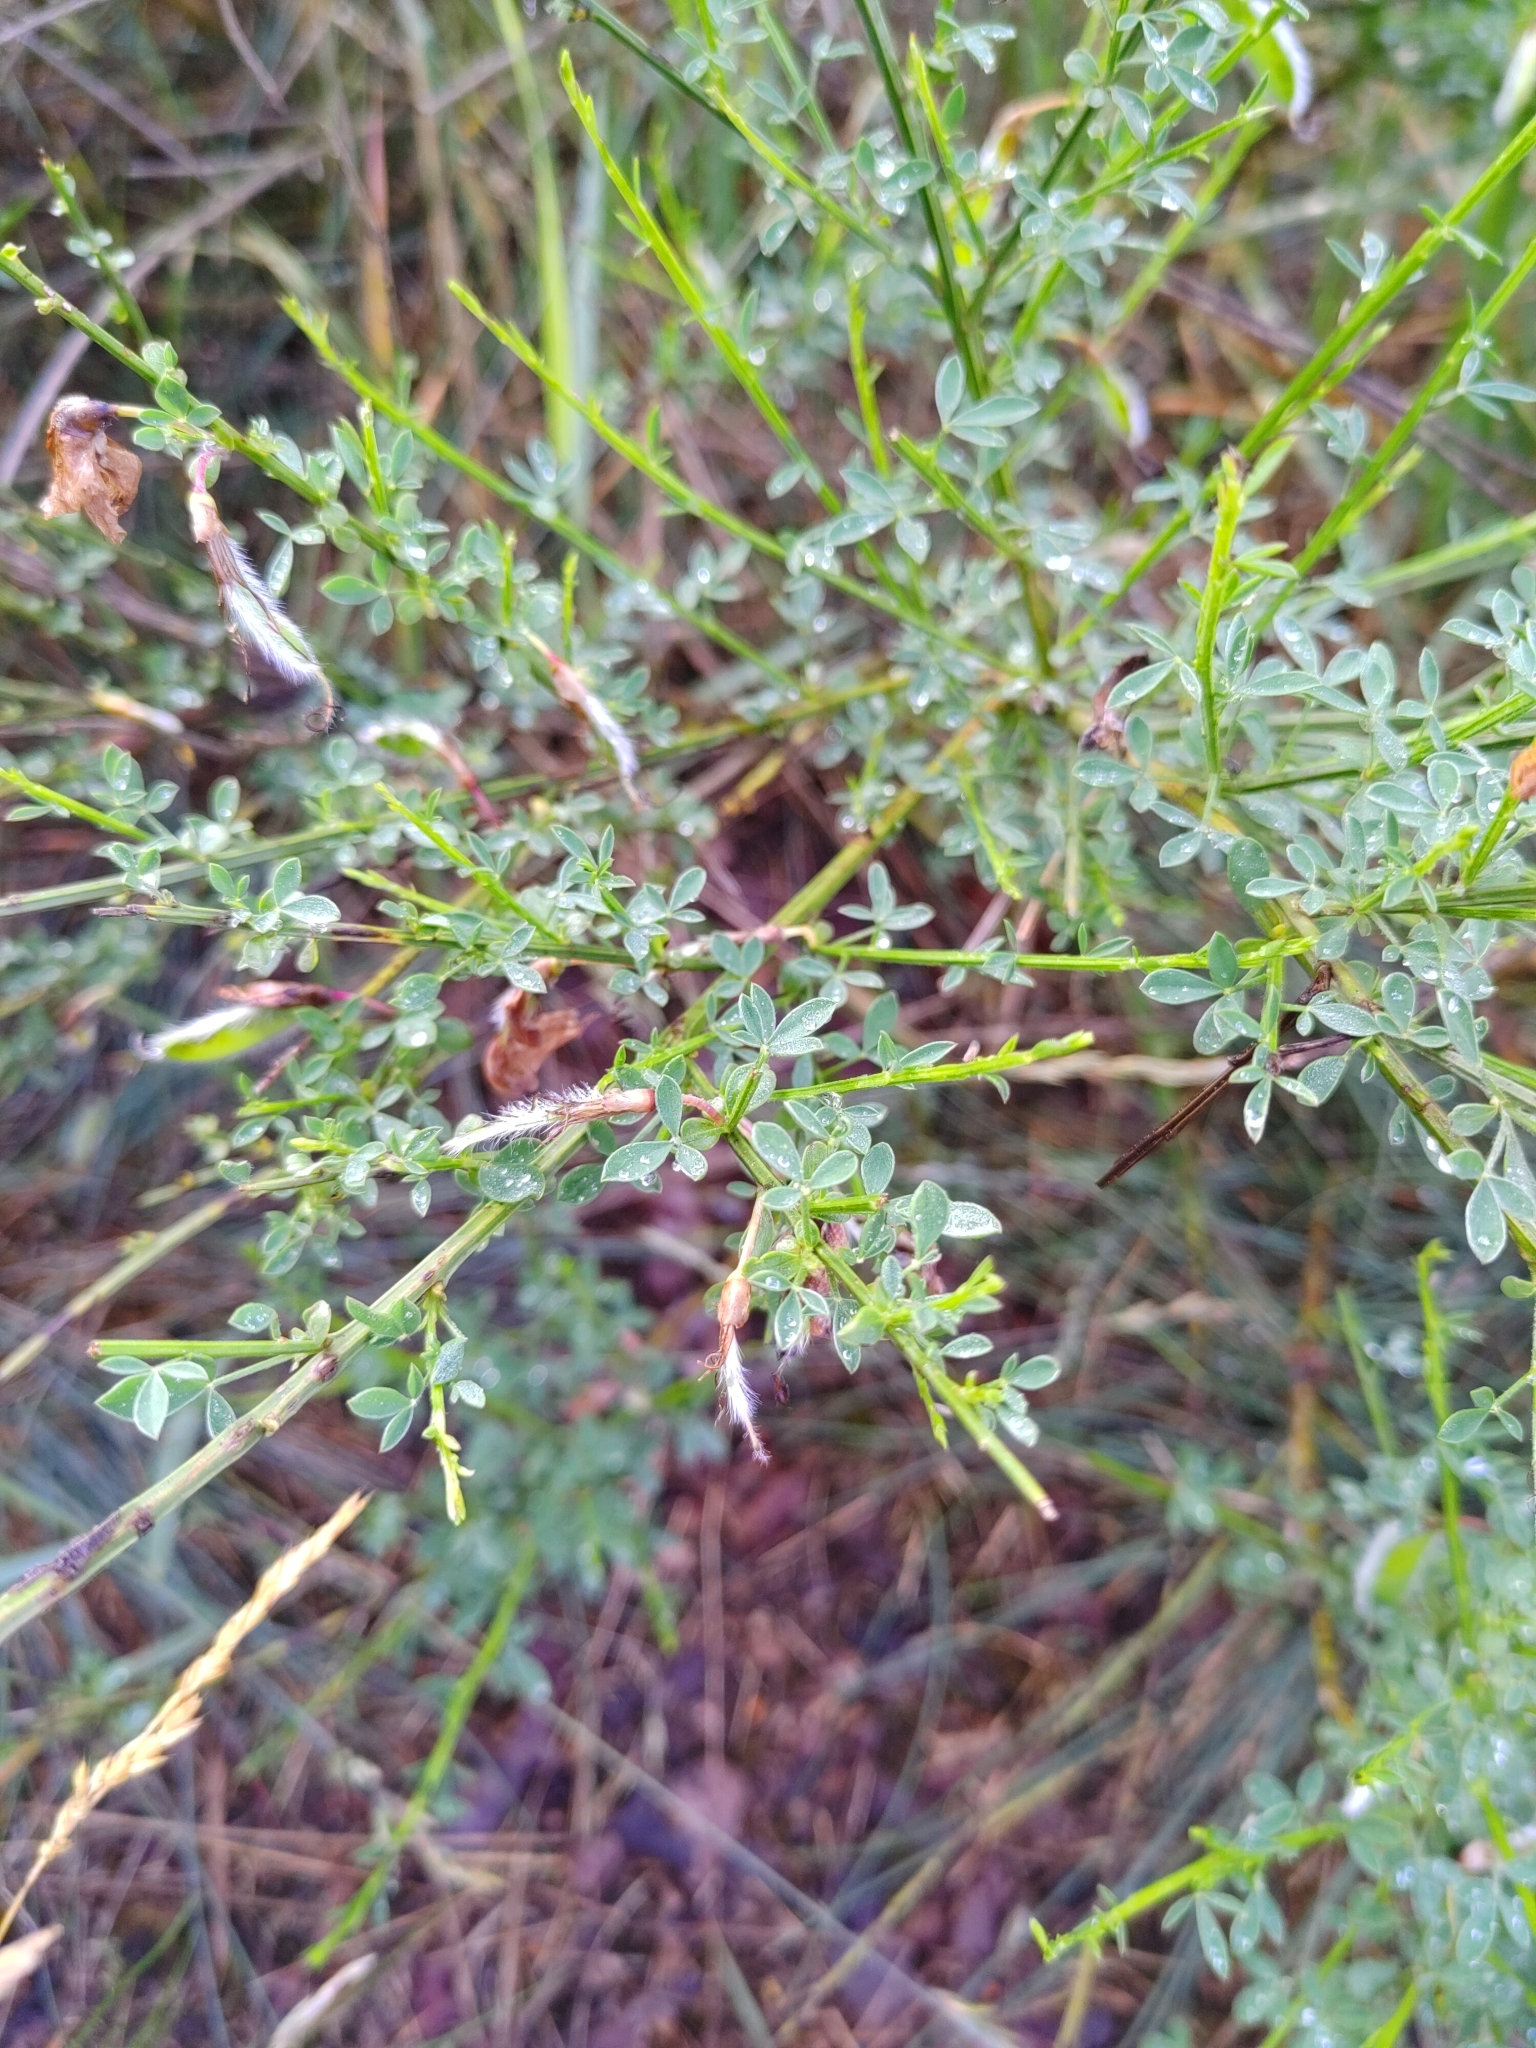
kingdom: Plantae
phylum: Tracheophyta
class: Magnoliopsida
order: Fabales
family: Fabaceae
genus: Cytisus
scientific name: Cytisus scoparius
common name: Scotch broom
